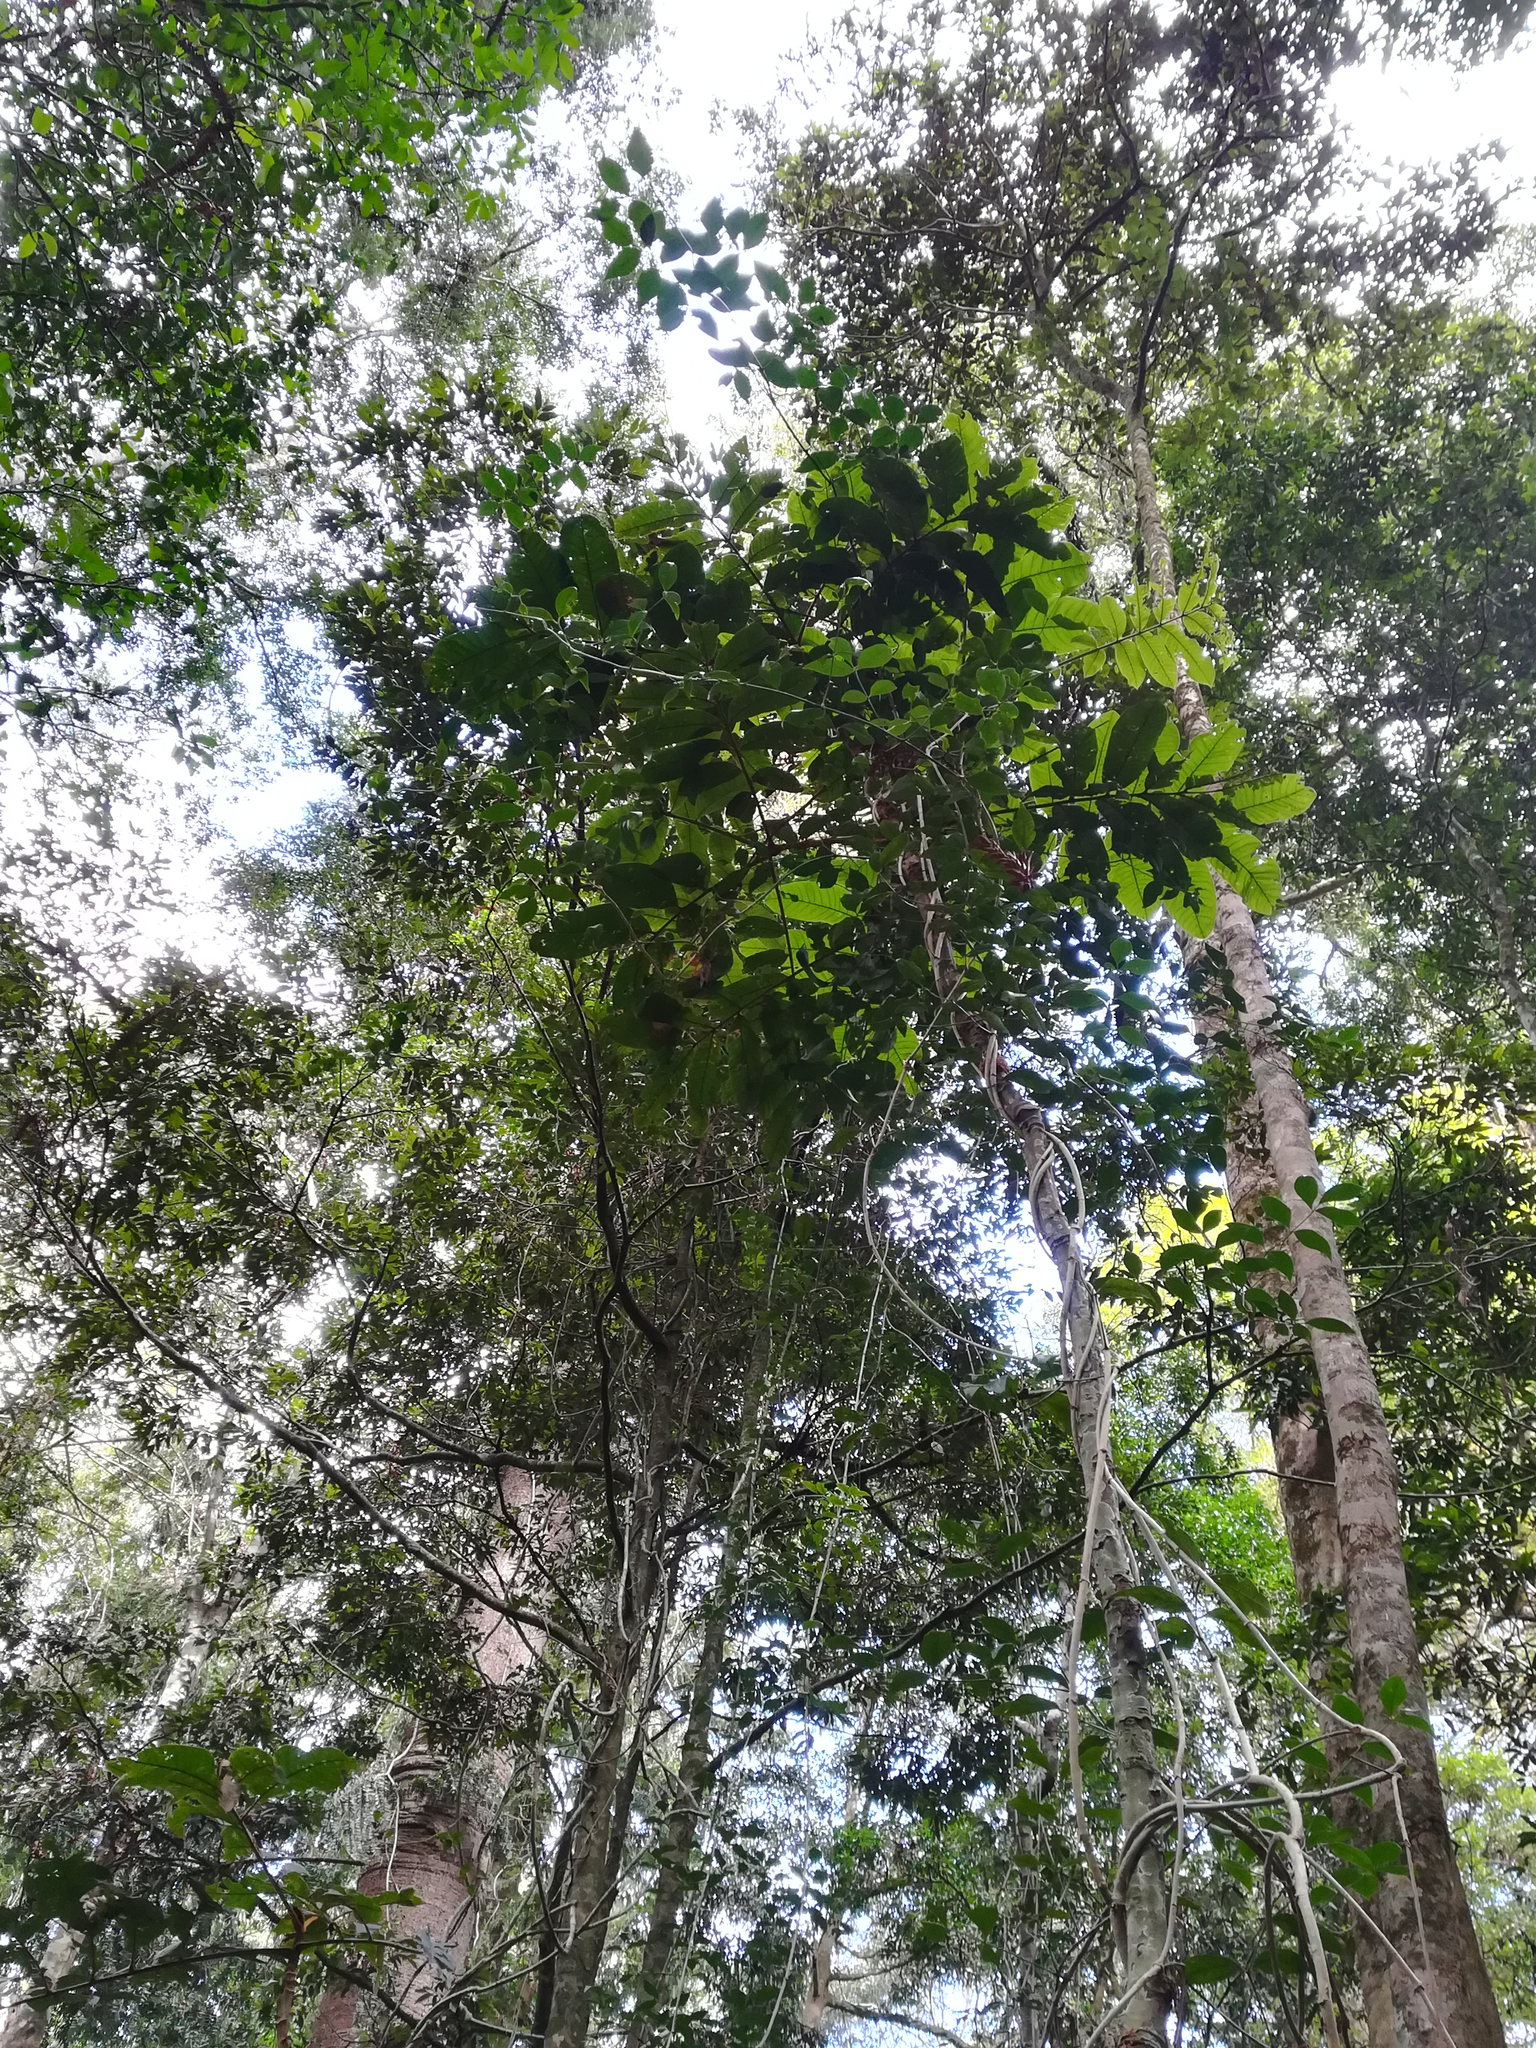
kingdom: Plantae
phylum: Tracheophyta
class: Magnoliopsida
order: Sapindales
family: Sapindaceae
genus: Diploglottis
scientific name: Diploglottis australis
